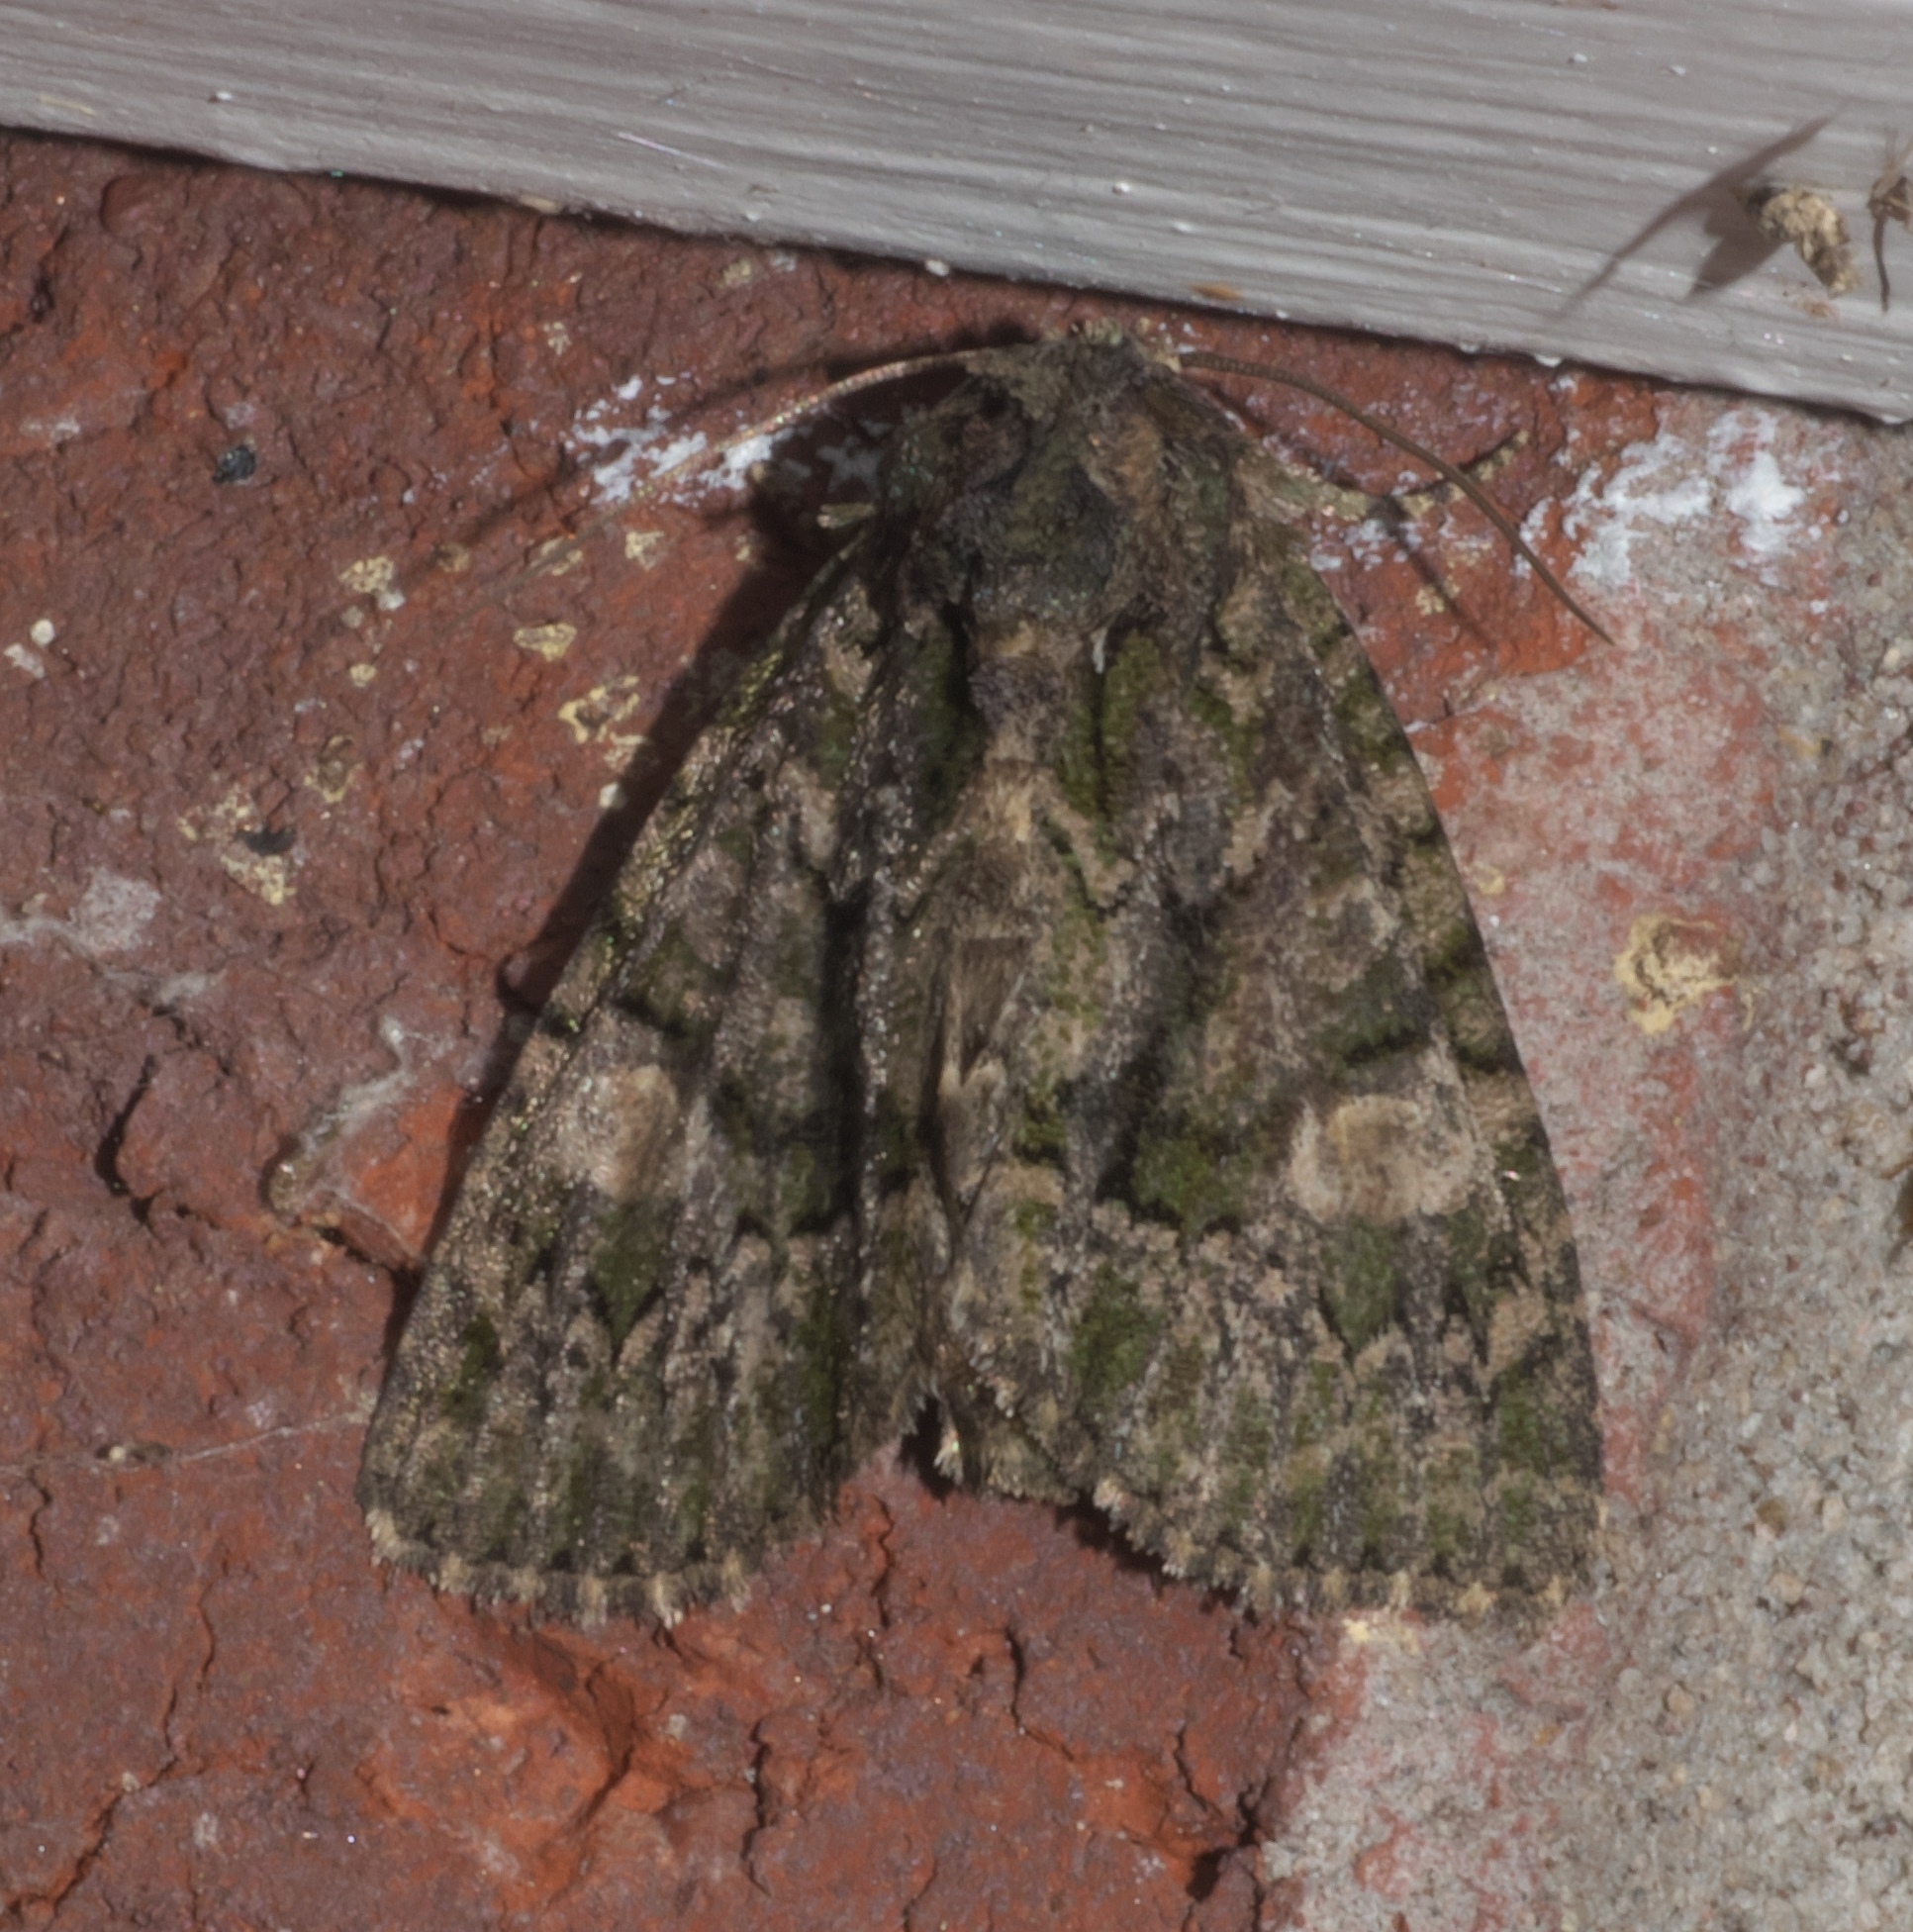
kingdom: Animalia
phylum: Arthropoda
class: Insecta
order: Lepidoptera
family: Noctuidae
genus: Phosphila
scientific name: Phosphila miselioides
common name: Spotted phosphila moth
